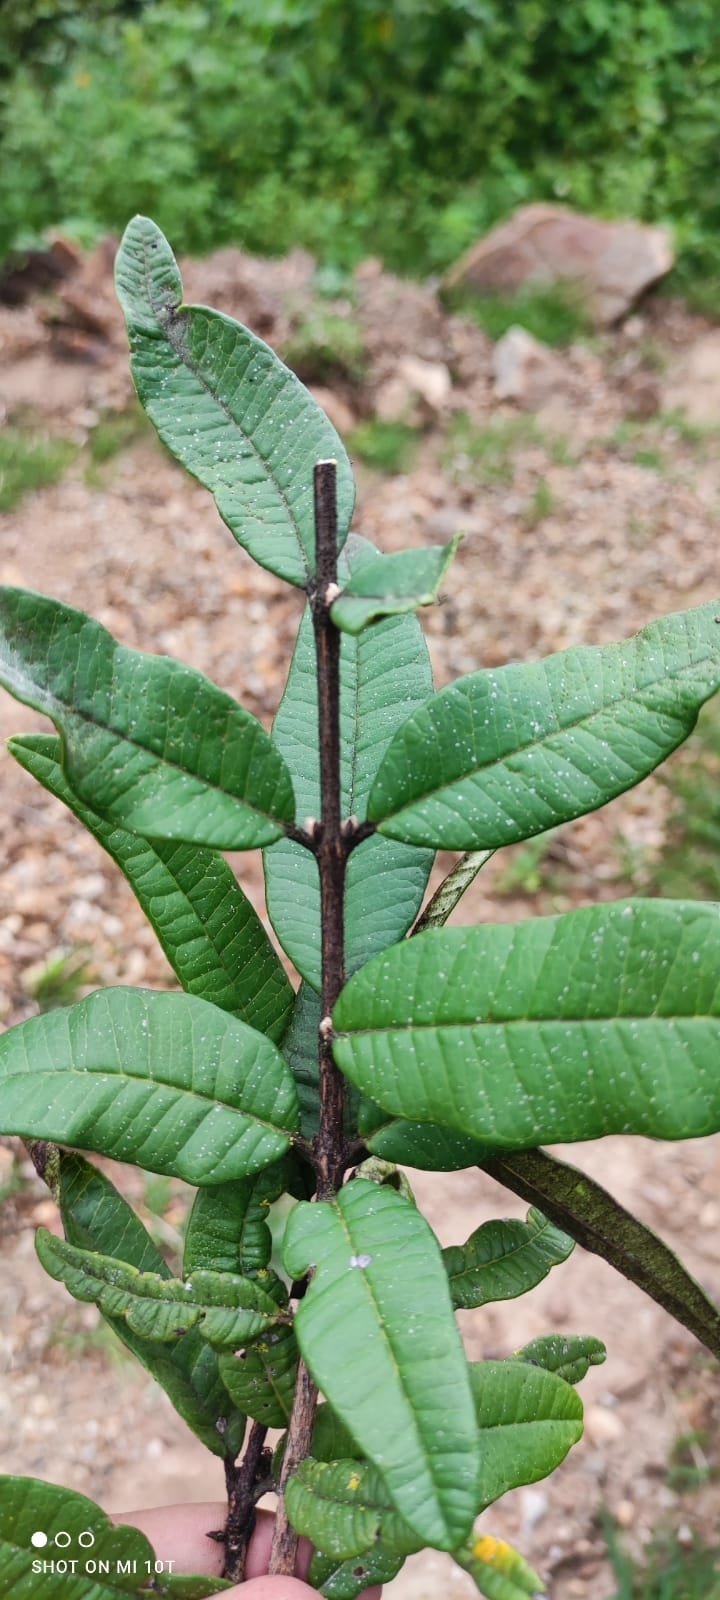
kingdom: Plantae
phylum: Tracheophyta
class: Magnoliopsida
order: Myrtales
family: Myrtaceae
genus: Eugenia
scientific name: Eugenia quebradensis
